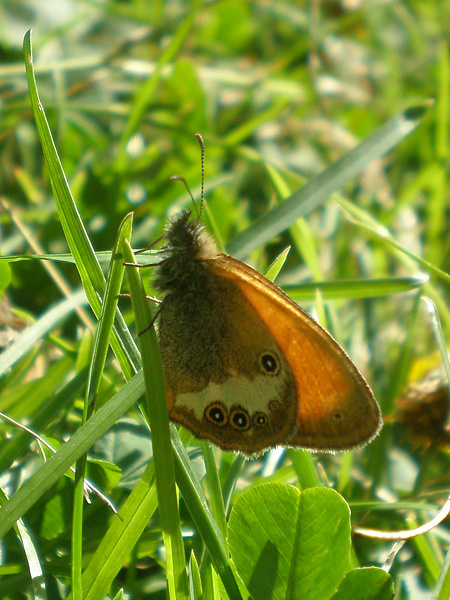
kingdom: Animalia
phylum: Arthropoda
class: Insecta
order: Lepidoptera
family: Nymphalidae
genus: Coenonympha
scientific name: Coenonympha arcania
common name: Pearly heath
